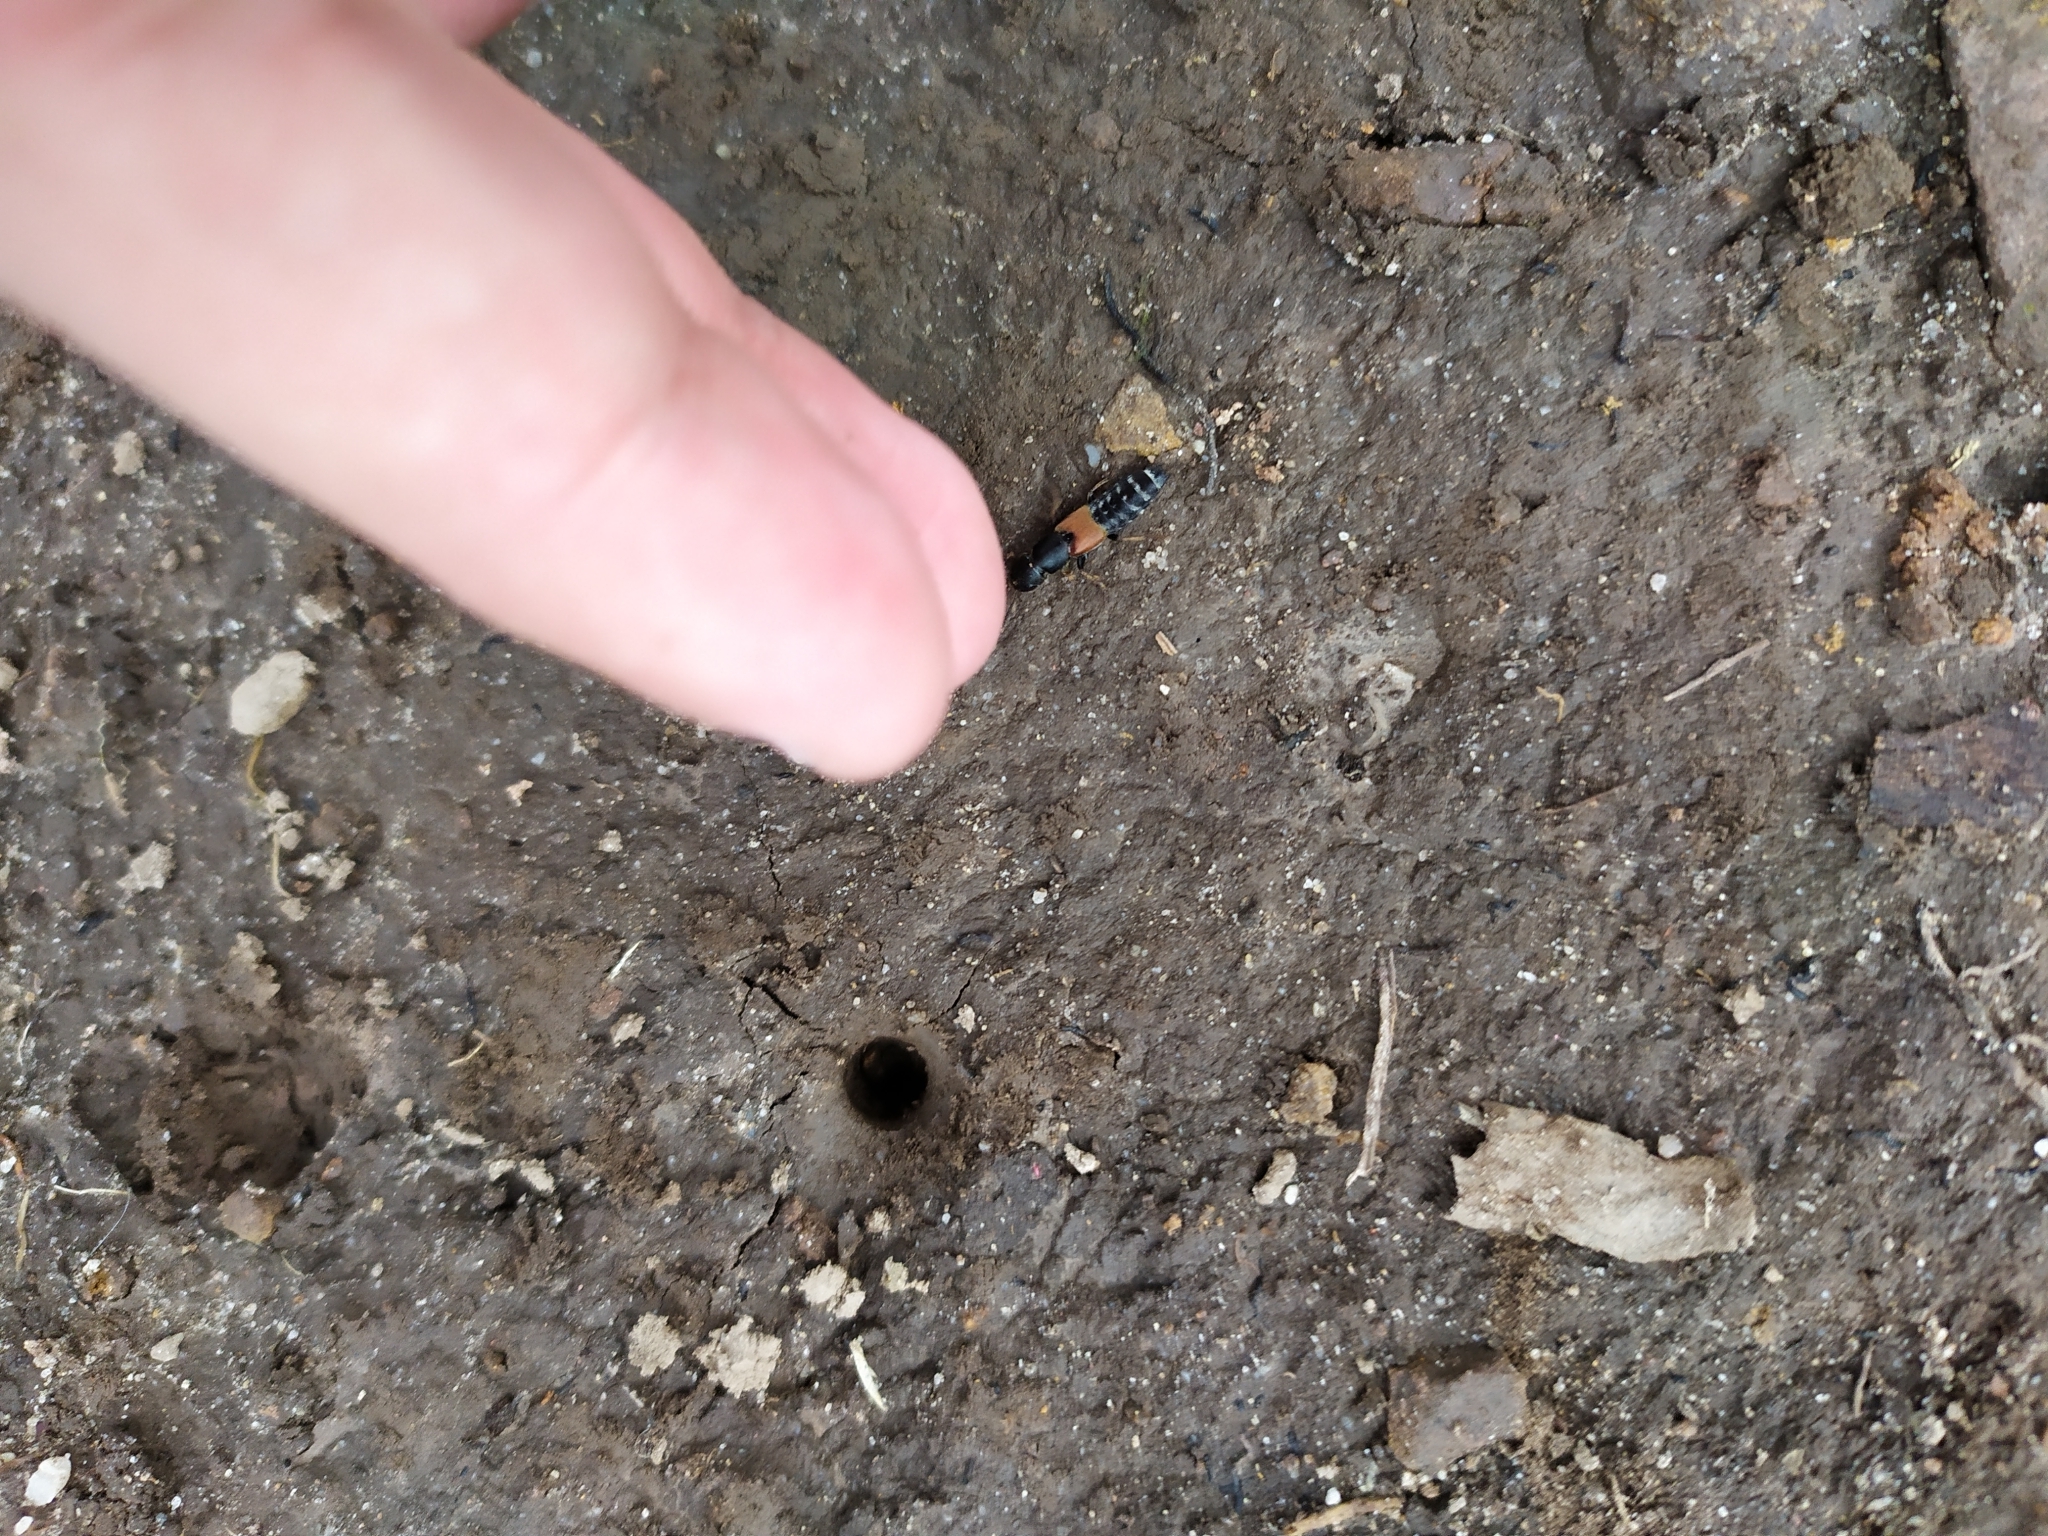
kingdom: Animalia
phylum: Arthropoda
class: Insecta
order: Coleoptera
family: Staphylinidae
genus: Platydracus
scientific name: Platydracus stercorarius
